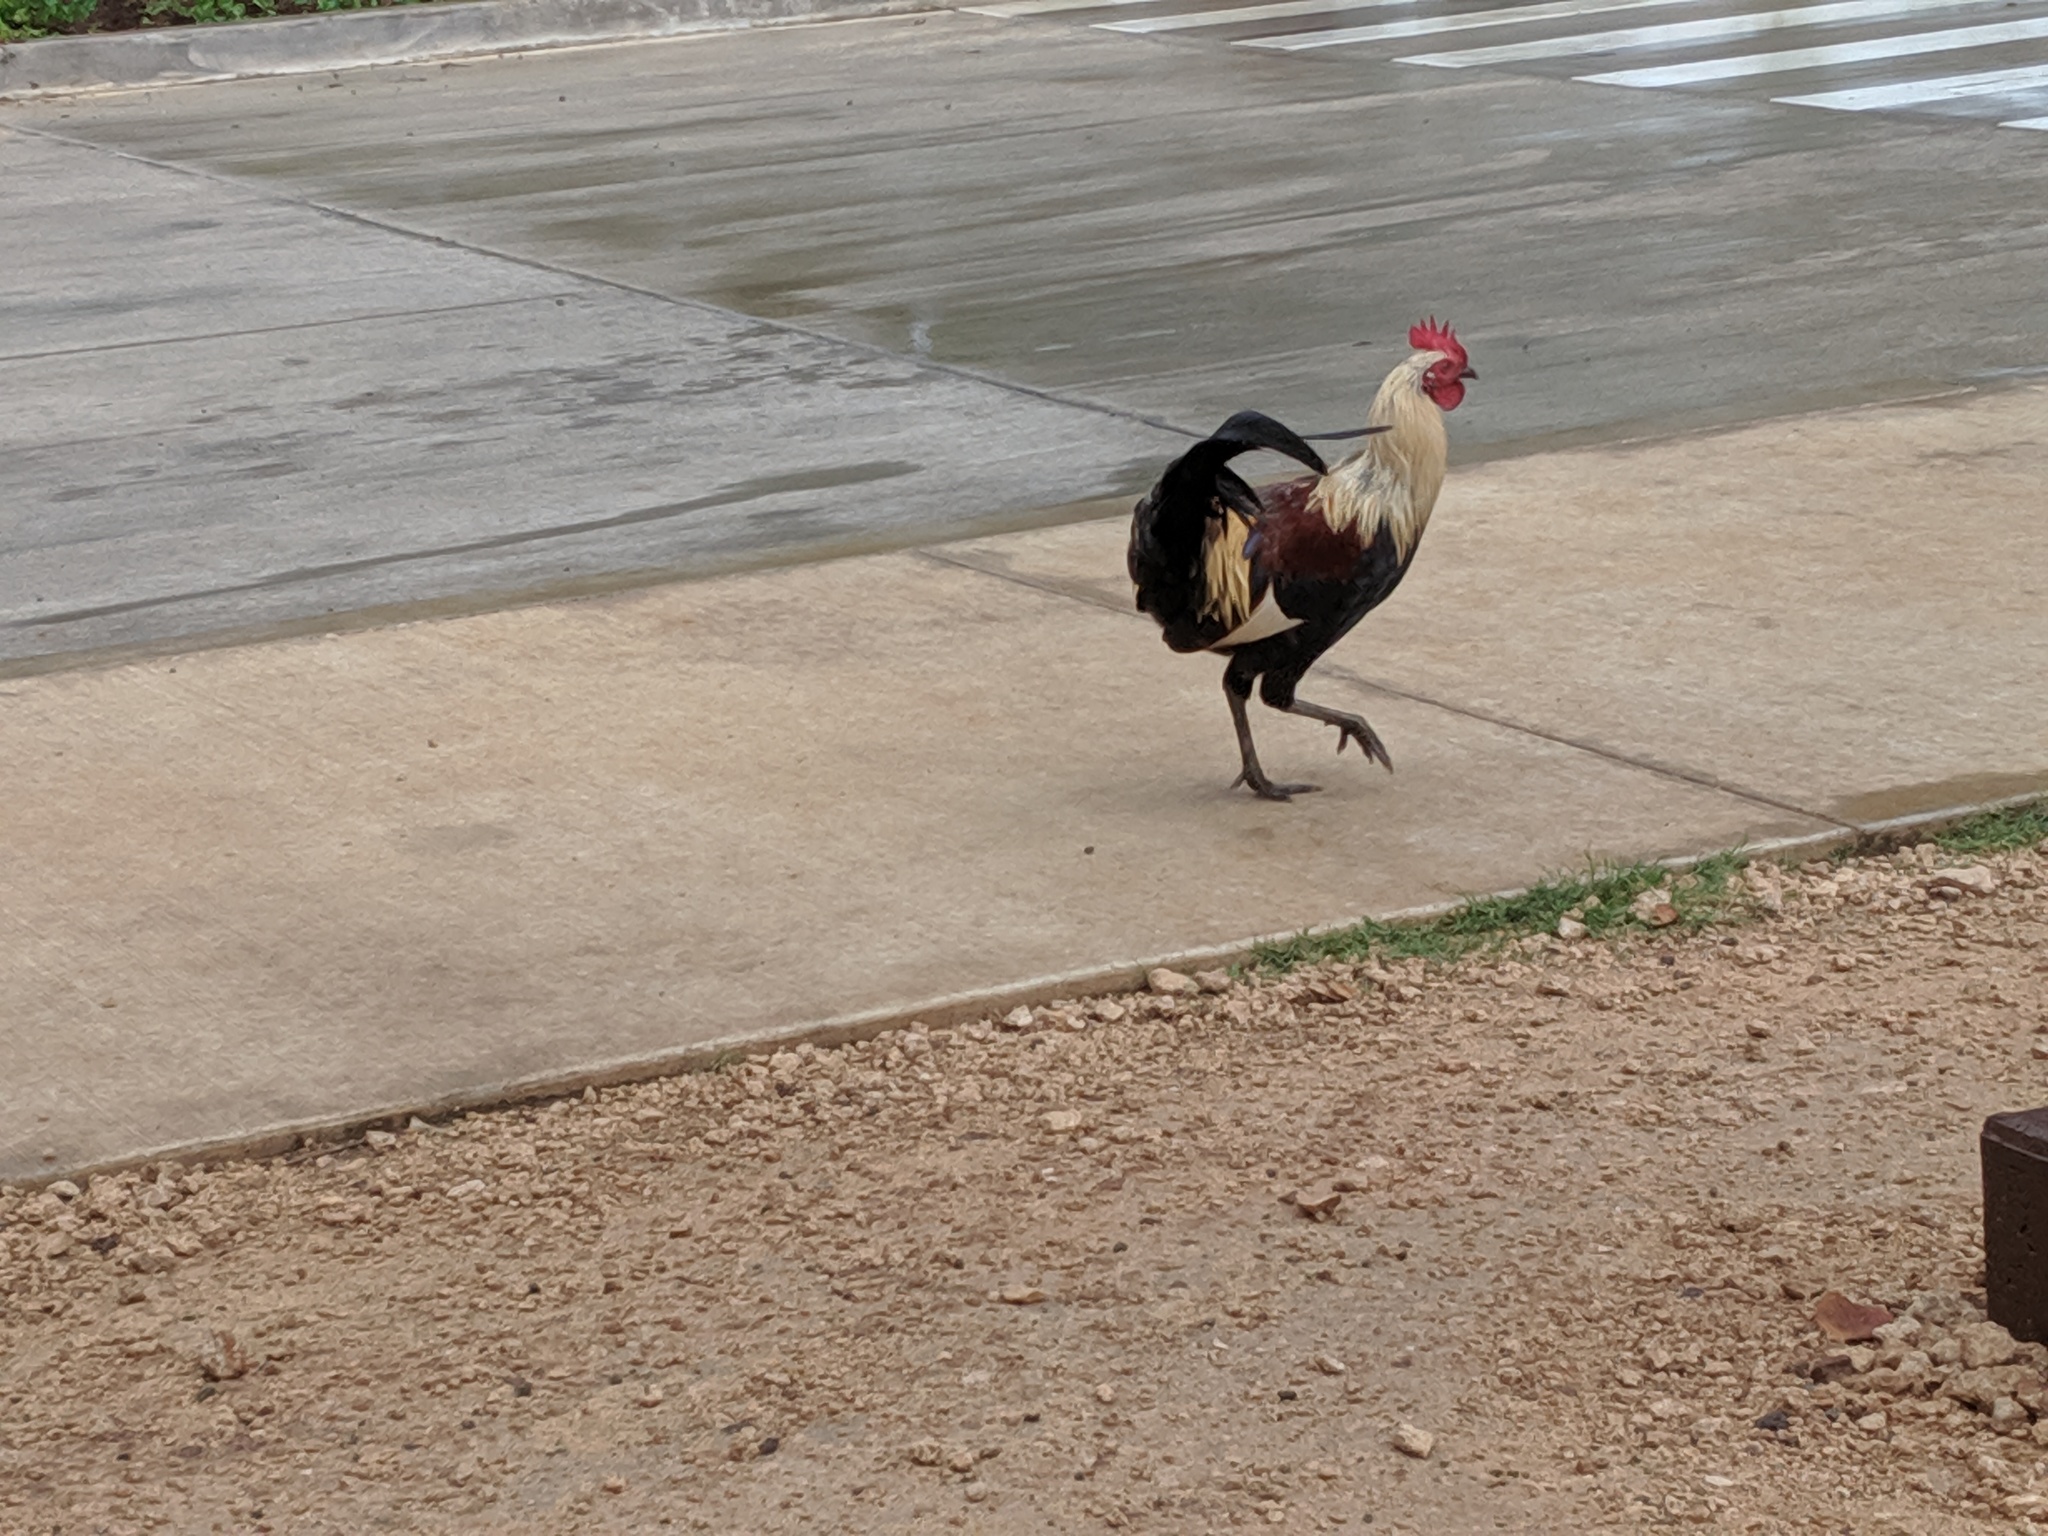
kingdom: Animalia
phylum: Chordata
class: Aves
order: Galliformes
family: Phasianidae
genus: Gallus
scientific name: Gallus gallus
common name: Red junglefowl
